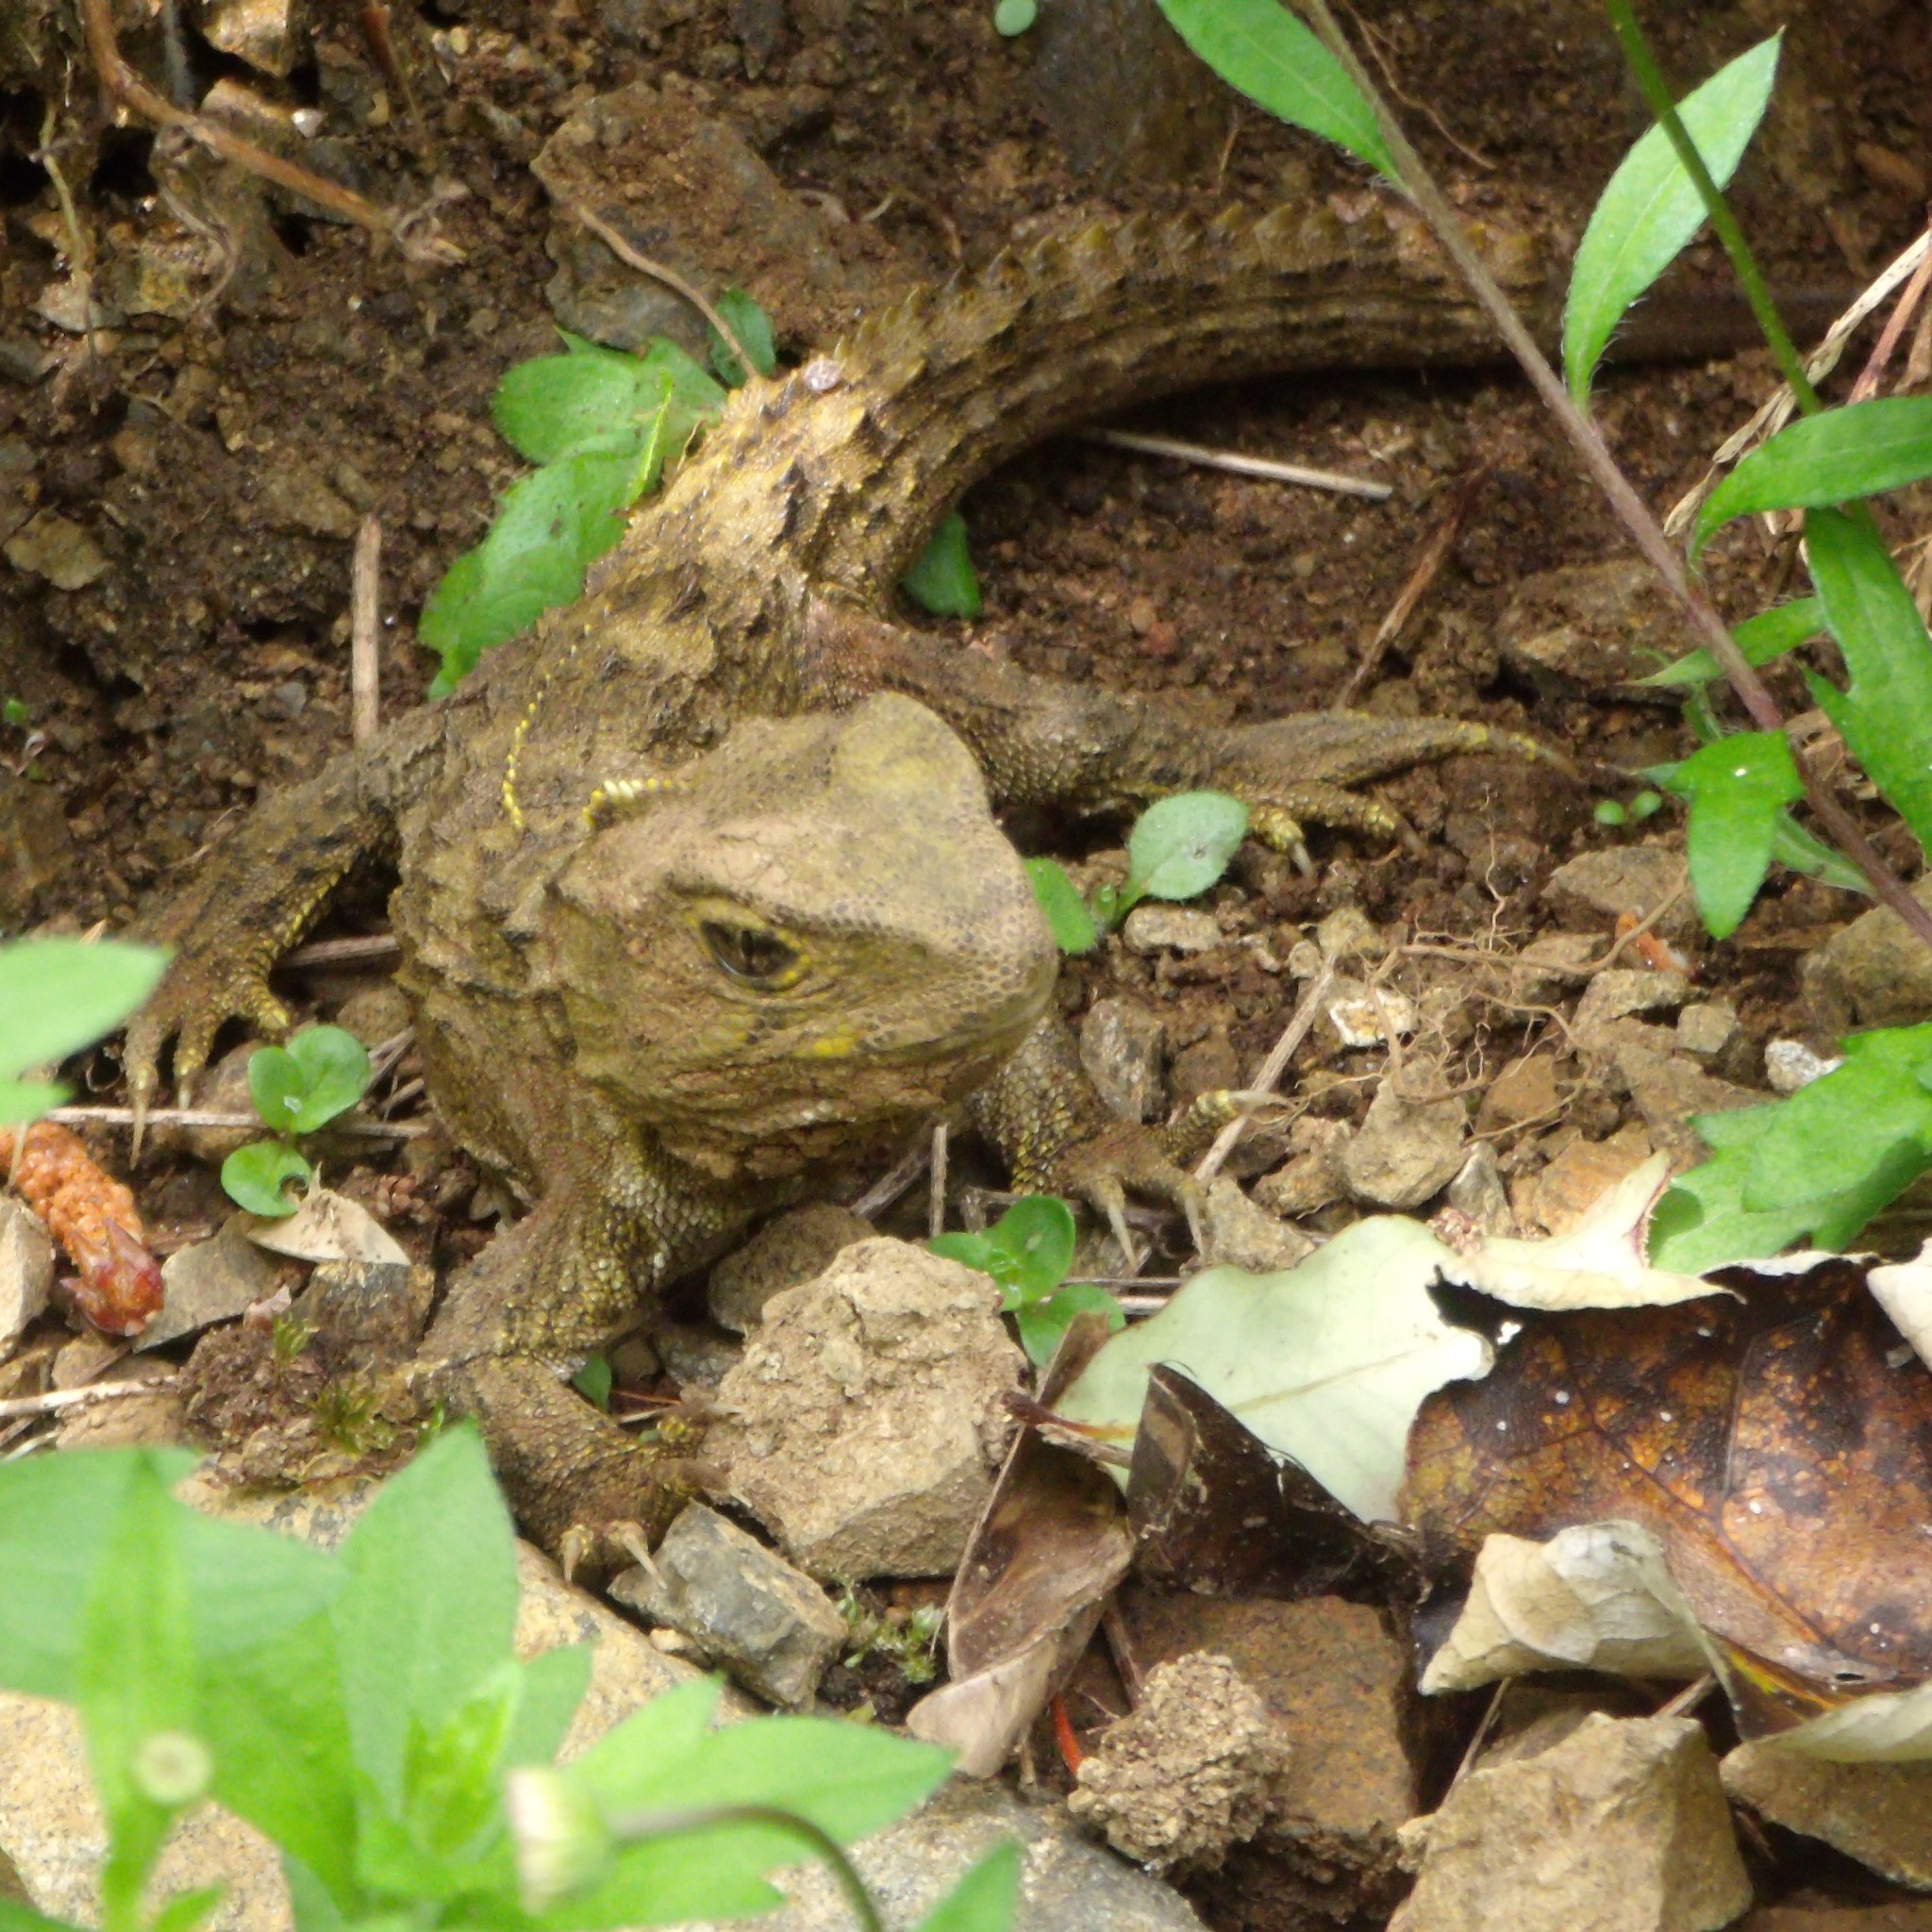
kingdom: Animalia
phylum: Chordata
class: Sphenodontia
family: Sphenodontidae
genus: Sphenodon
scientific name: Sphenodon punctatus
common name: Tuatara
